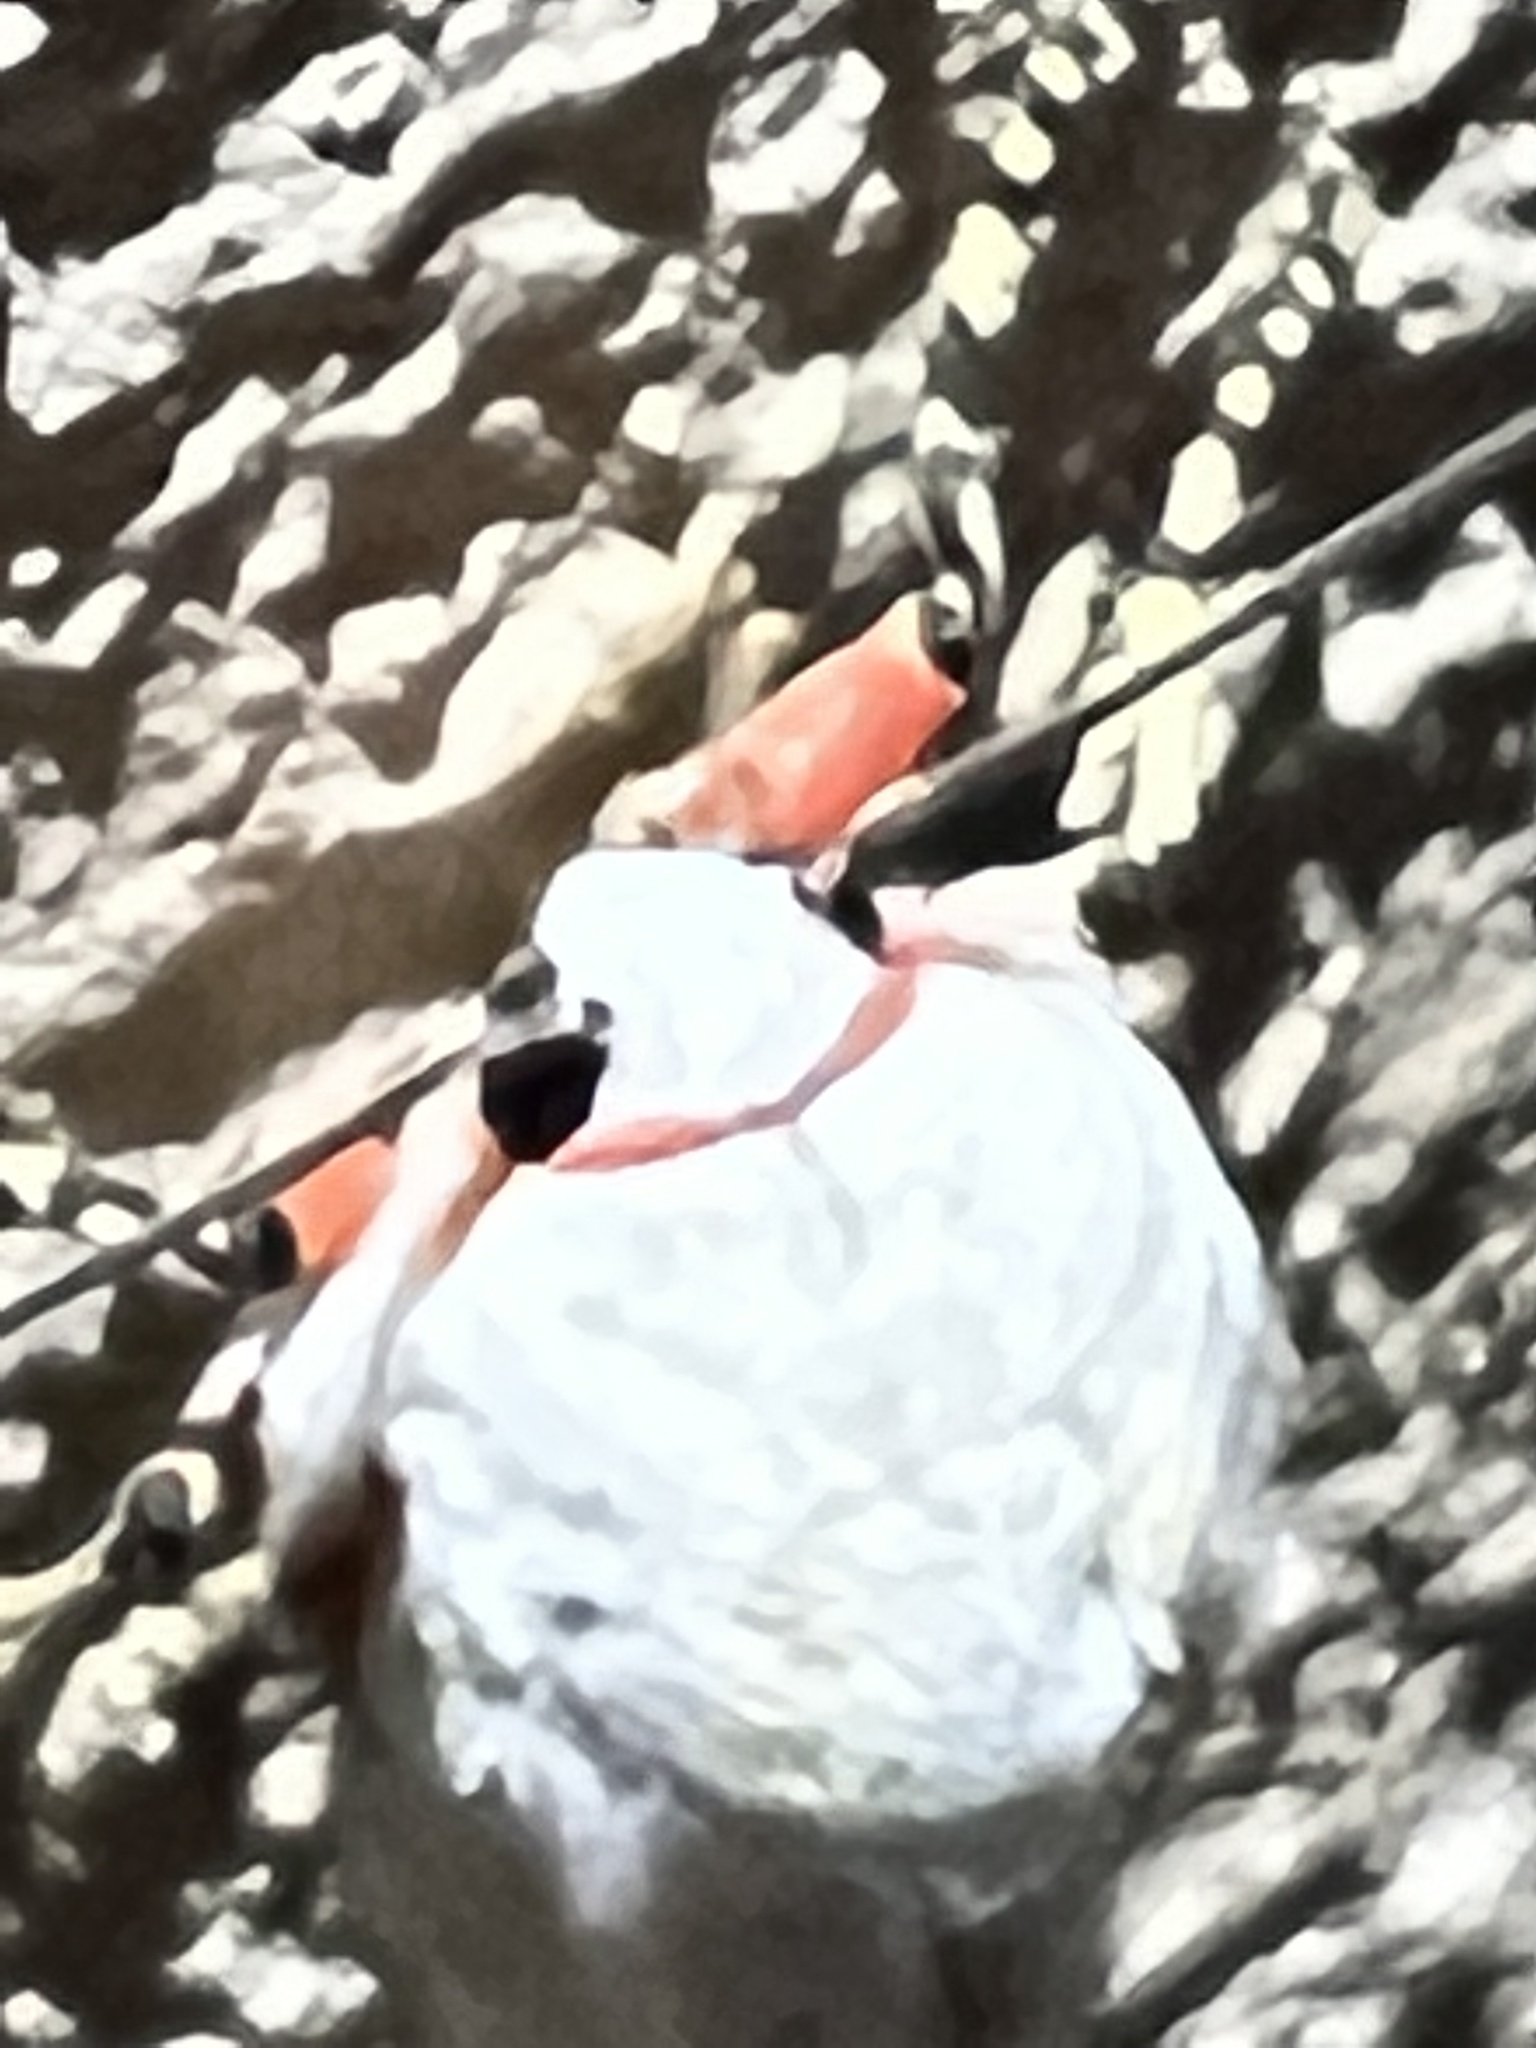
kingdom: Animalia
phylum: Arthropoda
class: Insecta
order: Lepidoptera
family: Erebidae
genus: Paralacydes
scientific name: Paralacydes vocula
